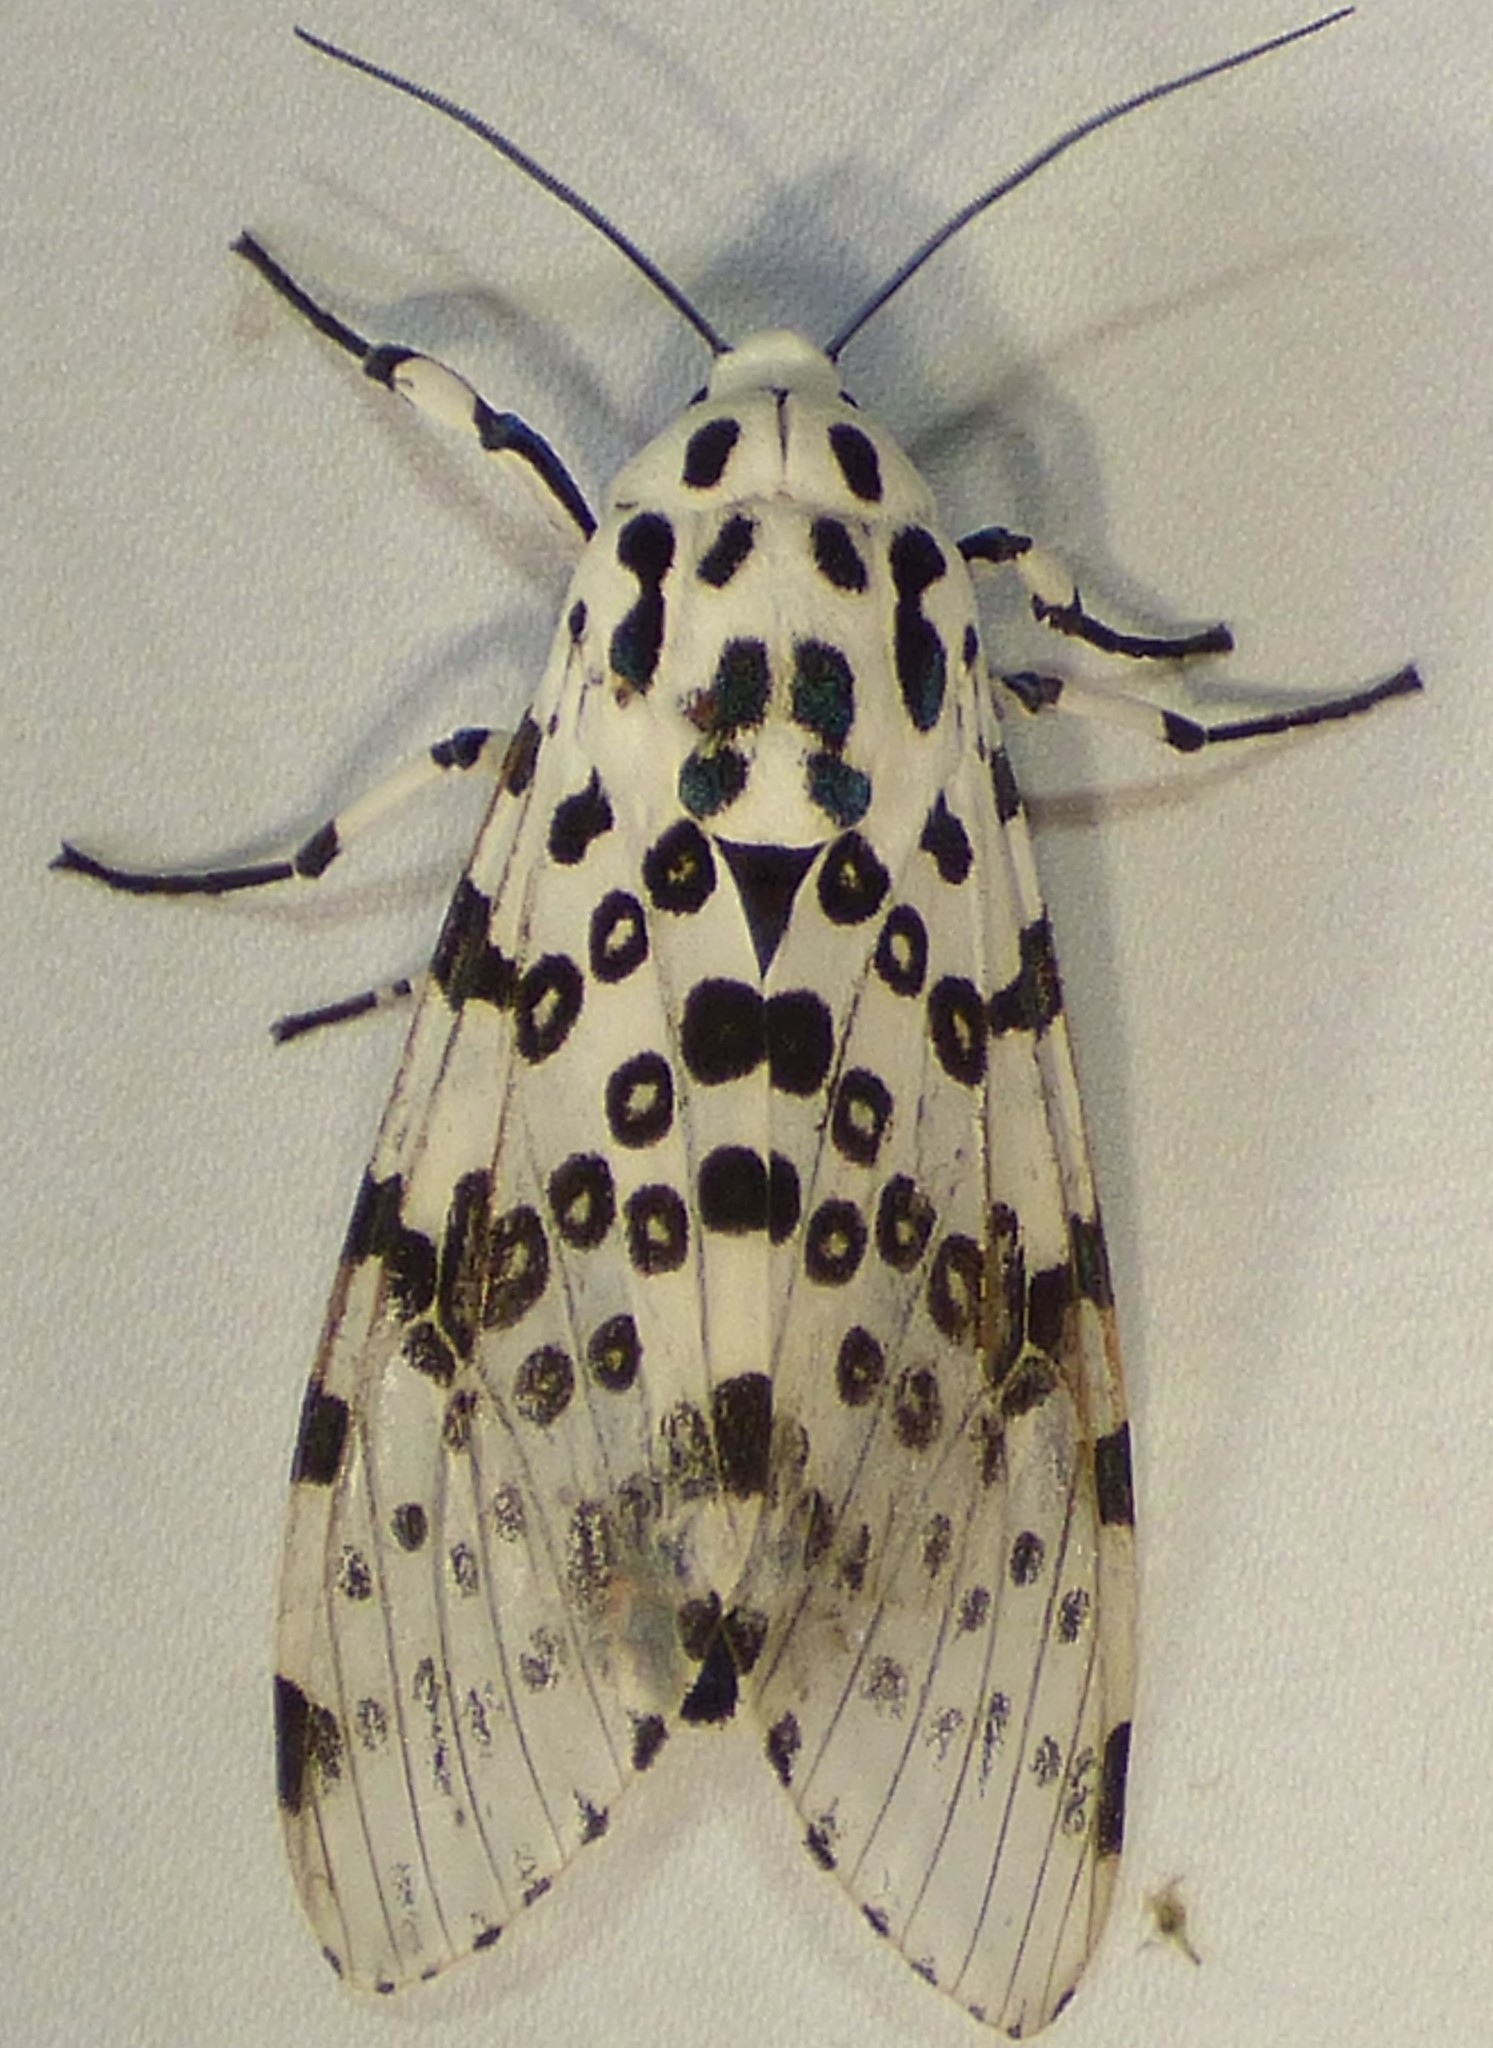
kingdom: Animalia
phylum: Arthropoda
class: Insecta
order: Lepidoptera
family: Erebidae
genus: Hypercompe
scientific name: Hypercompe scribonia
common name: Giant leopard moth
